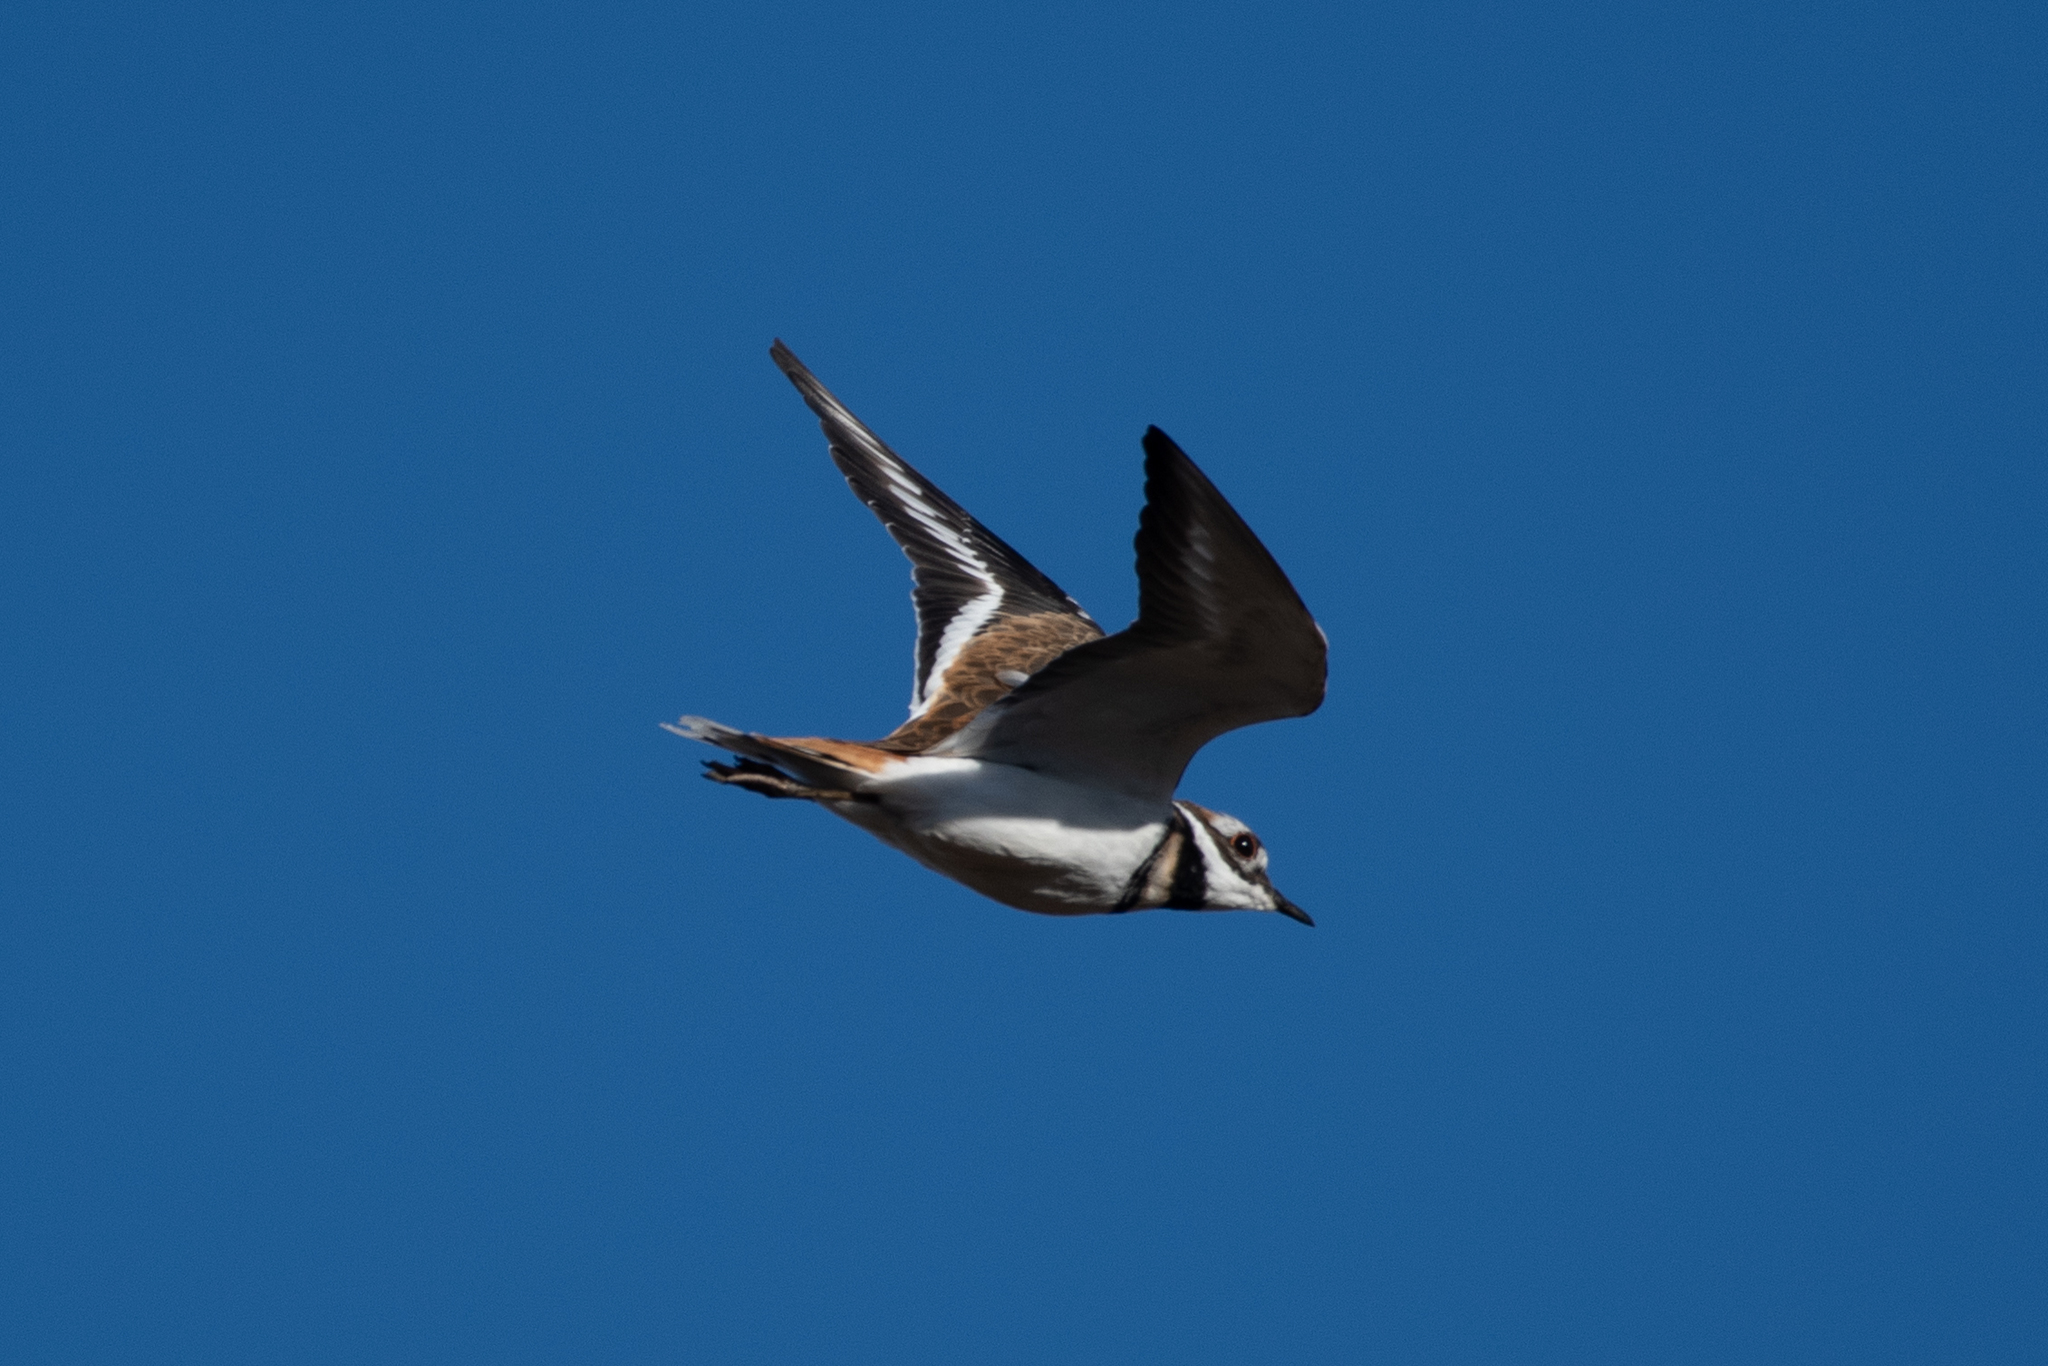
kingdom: Animalia
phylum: Chordata
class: Aves
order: Charadriiformes
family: Charadriidae
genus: Charadrius
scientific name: Charadrius vociferus
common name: Killdeer
